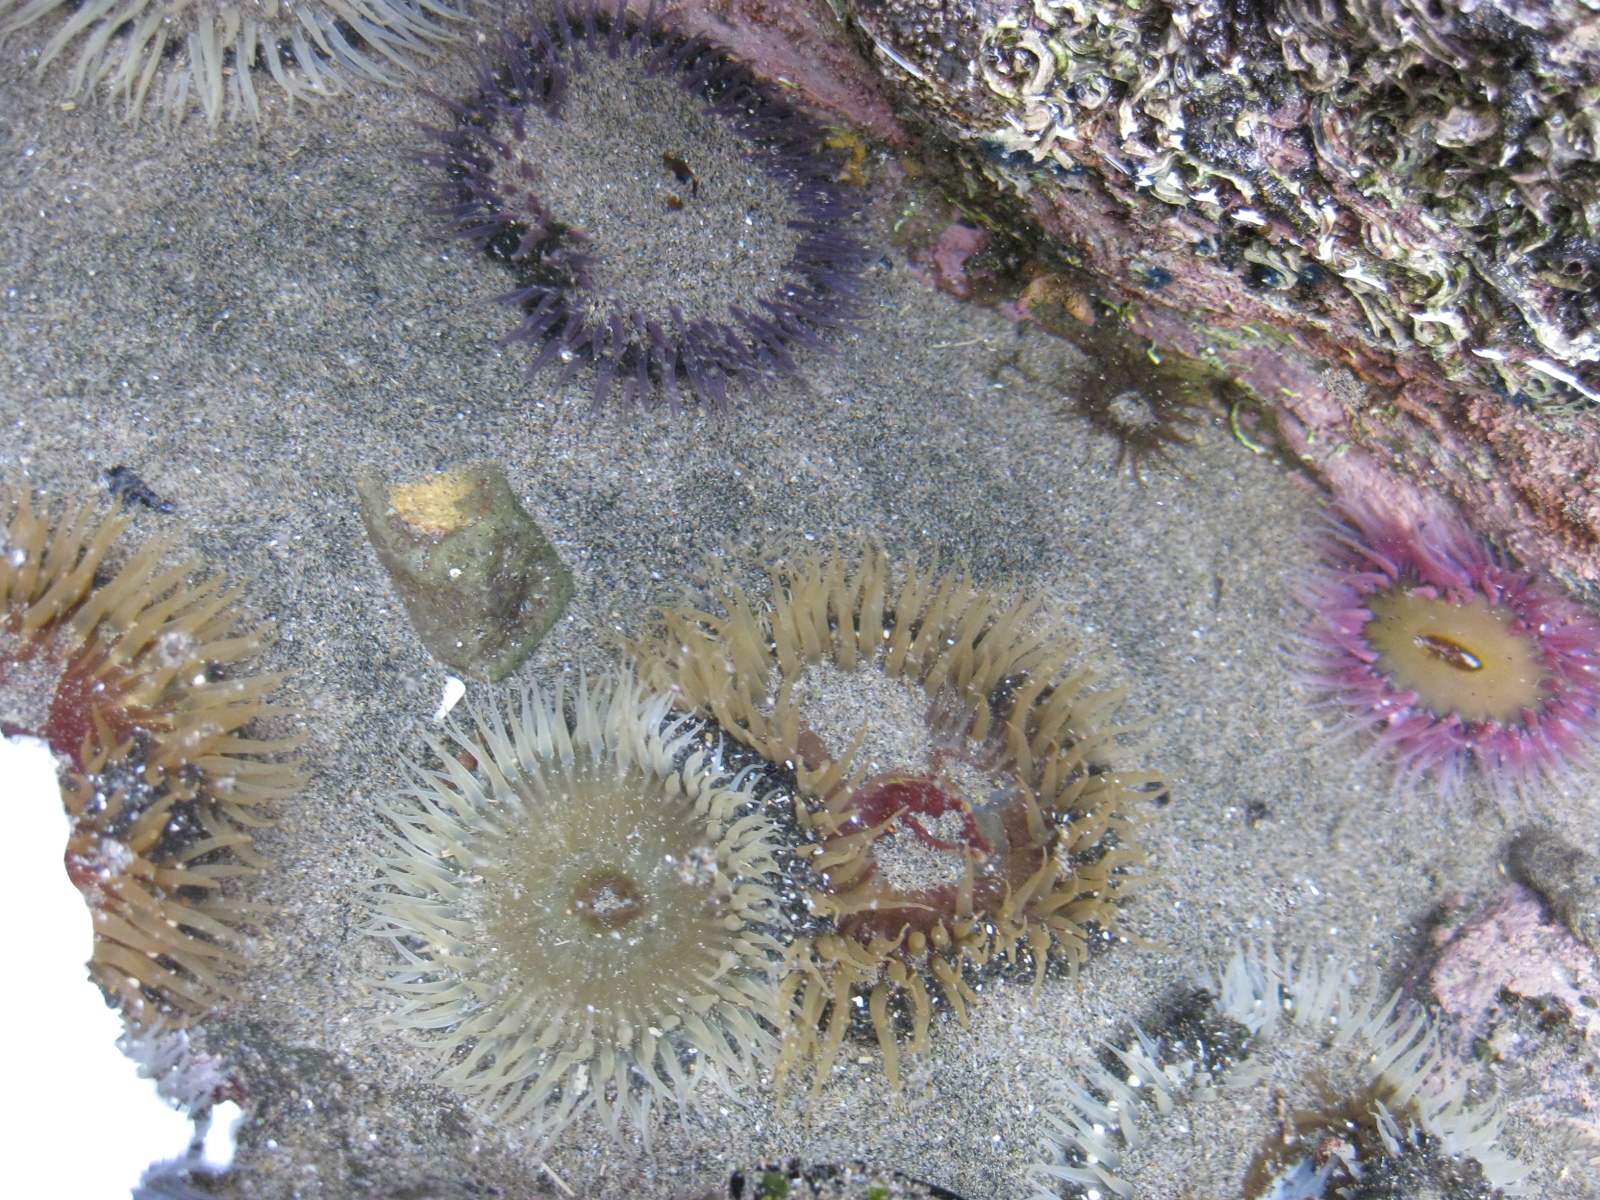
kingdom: Animalia
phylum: Cnidaria
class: Anthozoa
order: Actiniaria
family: Actiniidae
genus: Oulactis
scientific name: Oulactis magna
